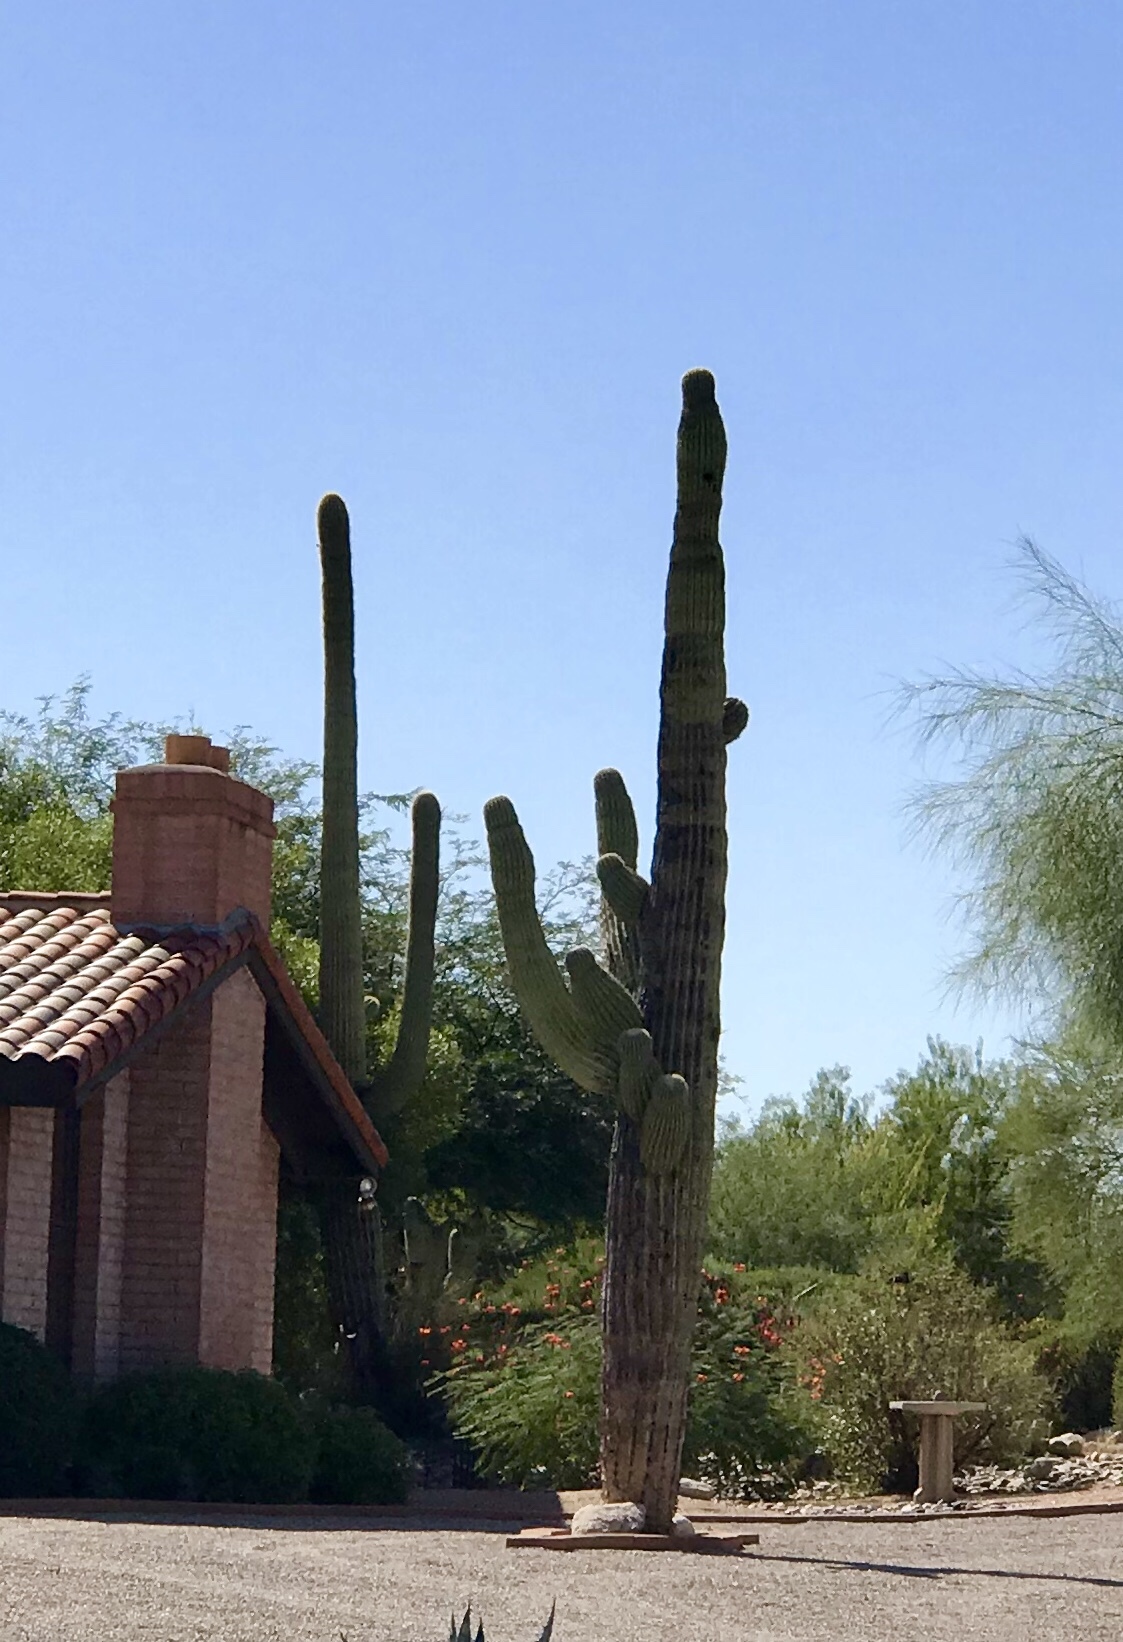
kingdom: Plantae
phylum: Tracheophyta
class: Magnoliopsida
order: Caryophyllales
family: Cactaceae
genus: Carnegiea
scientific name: Carnegiea gigantea
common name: Saguaro
